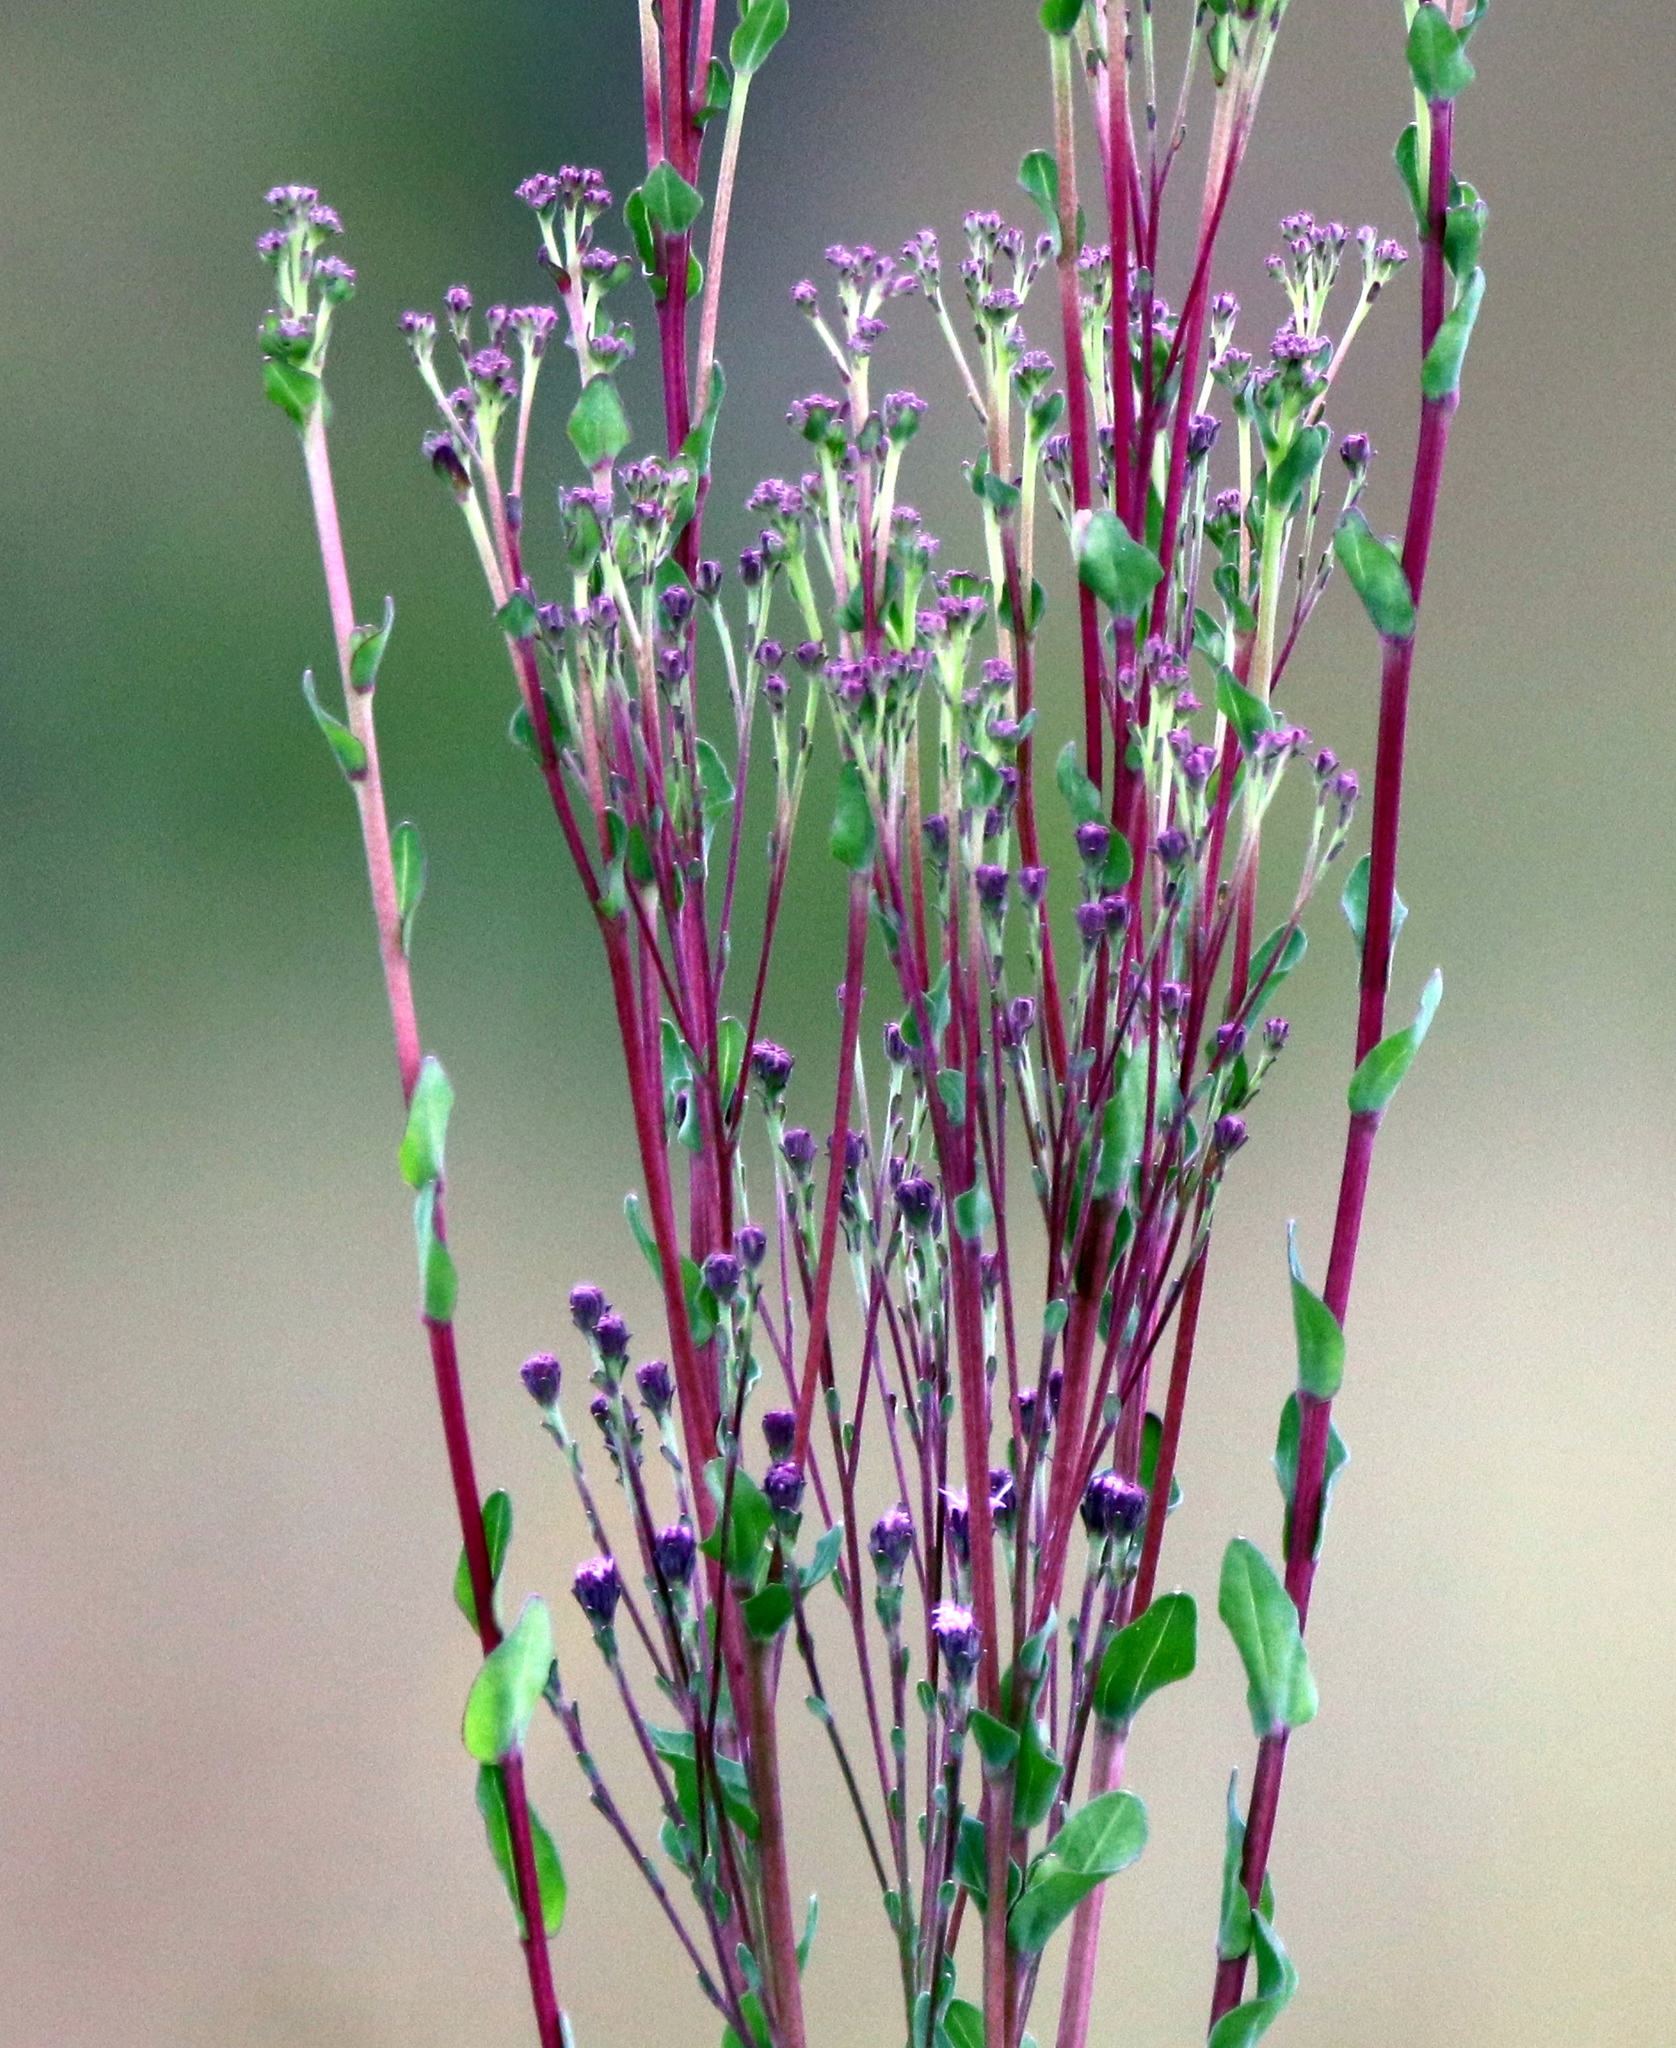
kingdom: Plantae
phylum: Tracheophyta
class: Magnoliopsida
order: Asterales
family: Asteraceae
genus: Carphephorus
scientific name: Carphephorus odoratissimus
